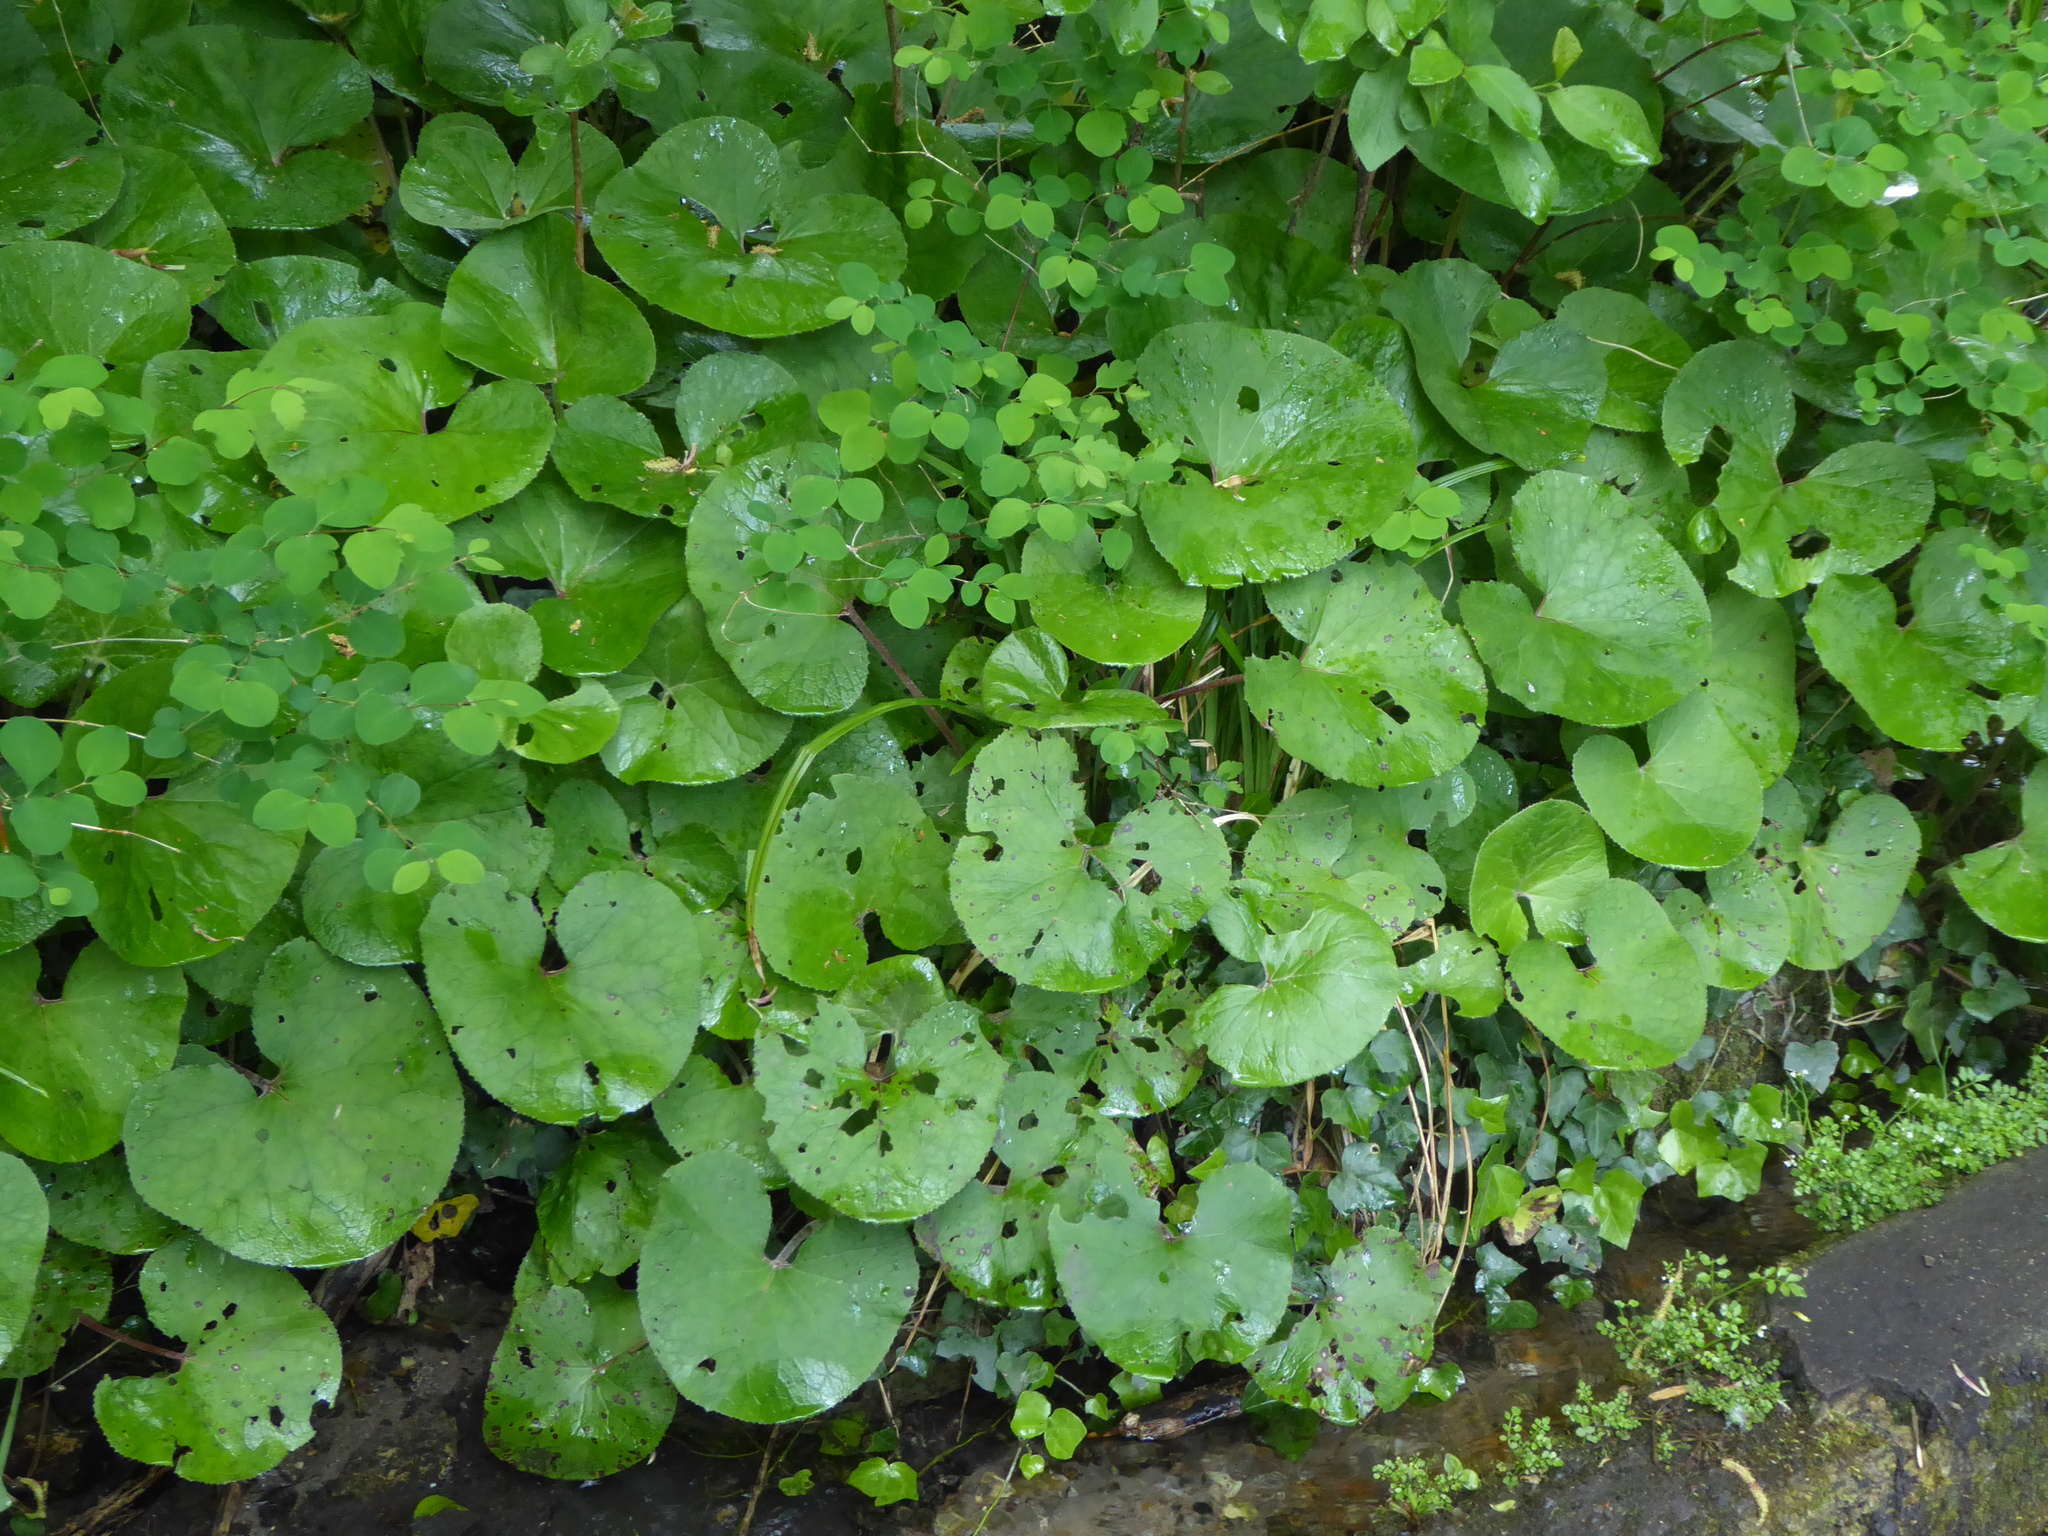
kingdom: Plantae
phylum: Tracheophyta
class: Magnoliopsida
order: Asterales
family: Asteraceae
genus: Petasites
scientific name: Petasites pyrenaicus
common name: Winter heliotrope
